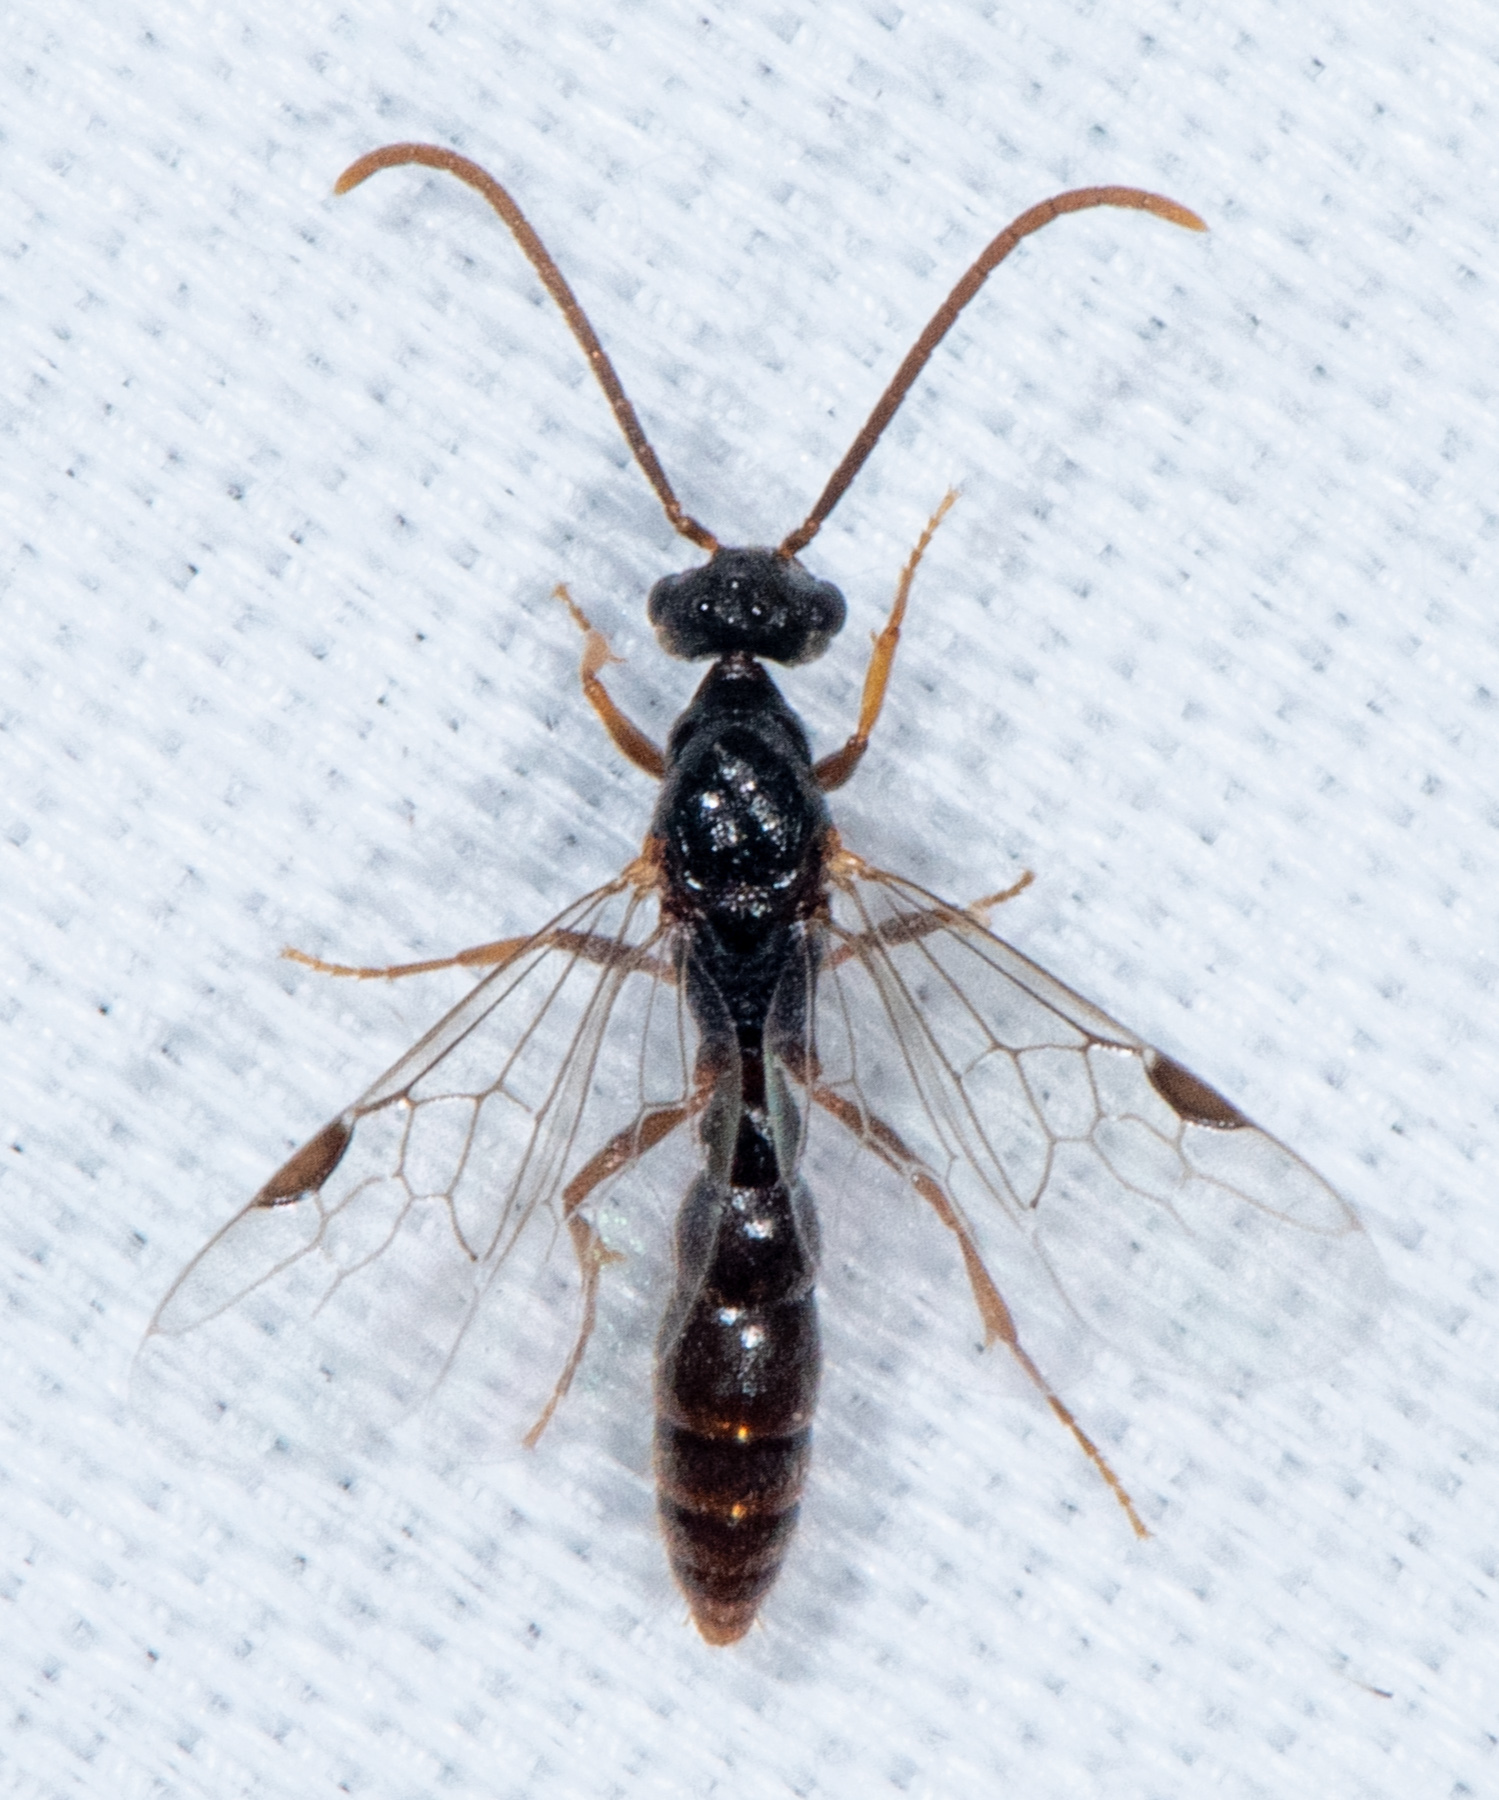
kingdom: Animalia
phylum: Arthropoda
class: Insecta
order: Hymenoptera
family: Formicidae
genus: Stigmatomma
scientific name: Stigmatomma pallipes
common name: Vampire ant
